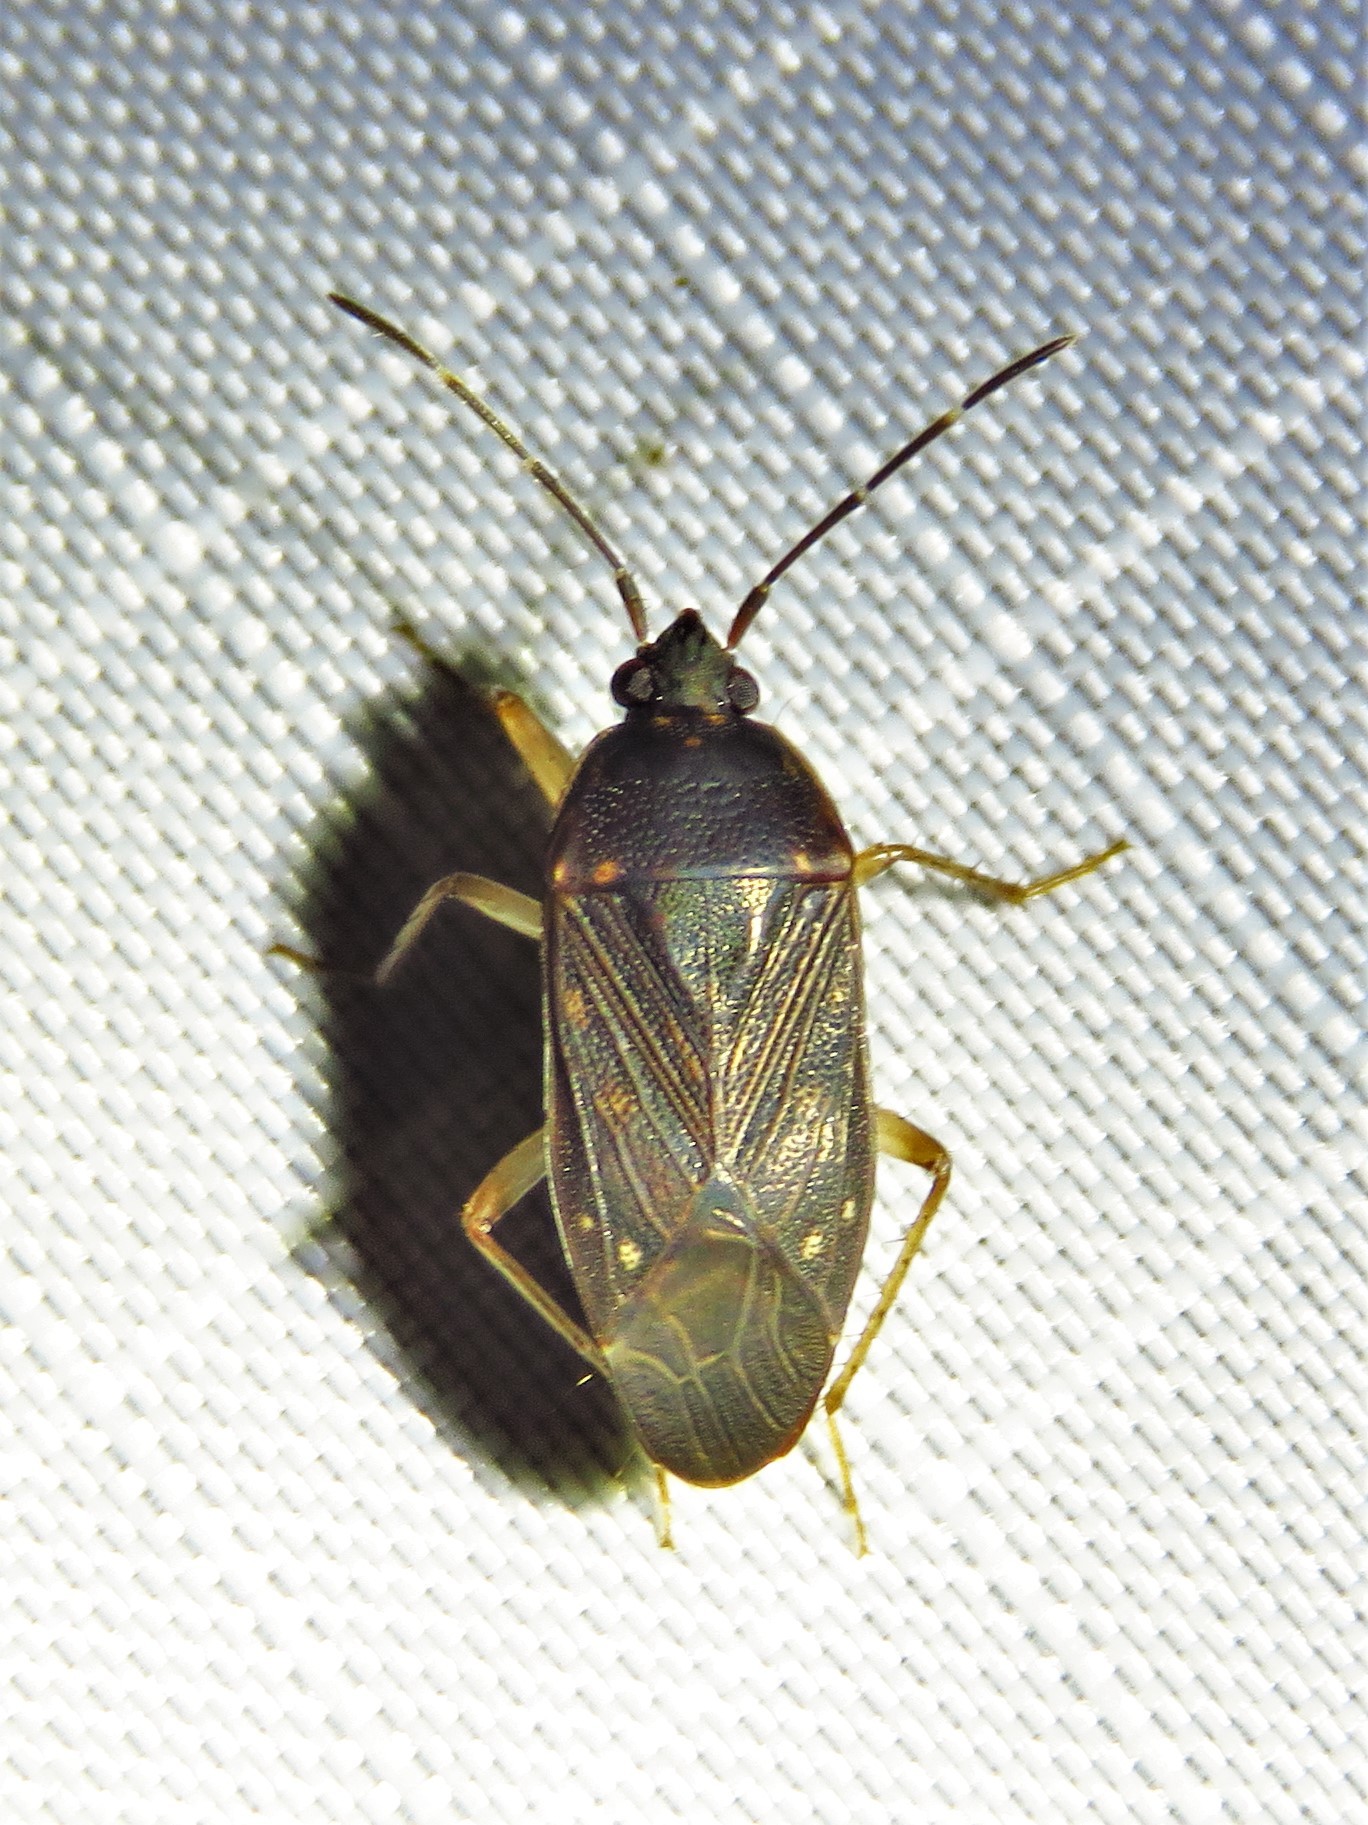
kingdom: Animalia
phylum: Arthropoda
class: Insecta
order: Hemiptera
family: Rhyparochromidae
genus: Paragonatas
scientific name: Paragonatas divergens
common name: Seed bug
